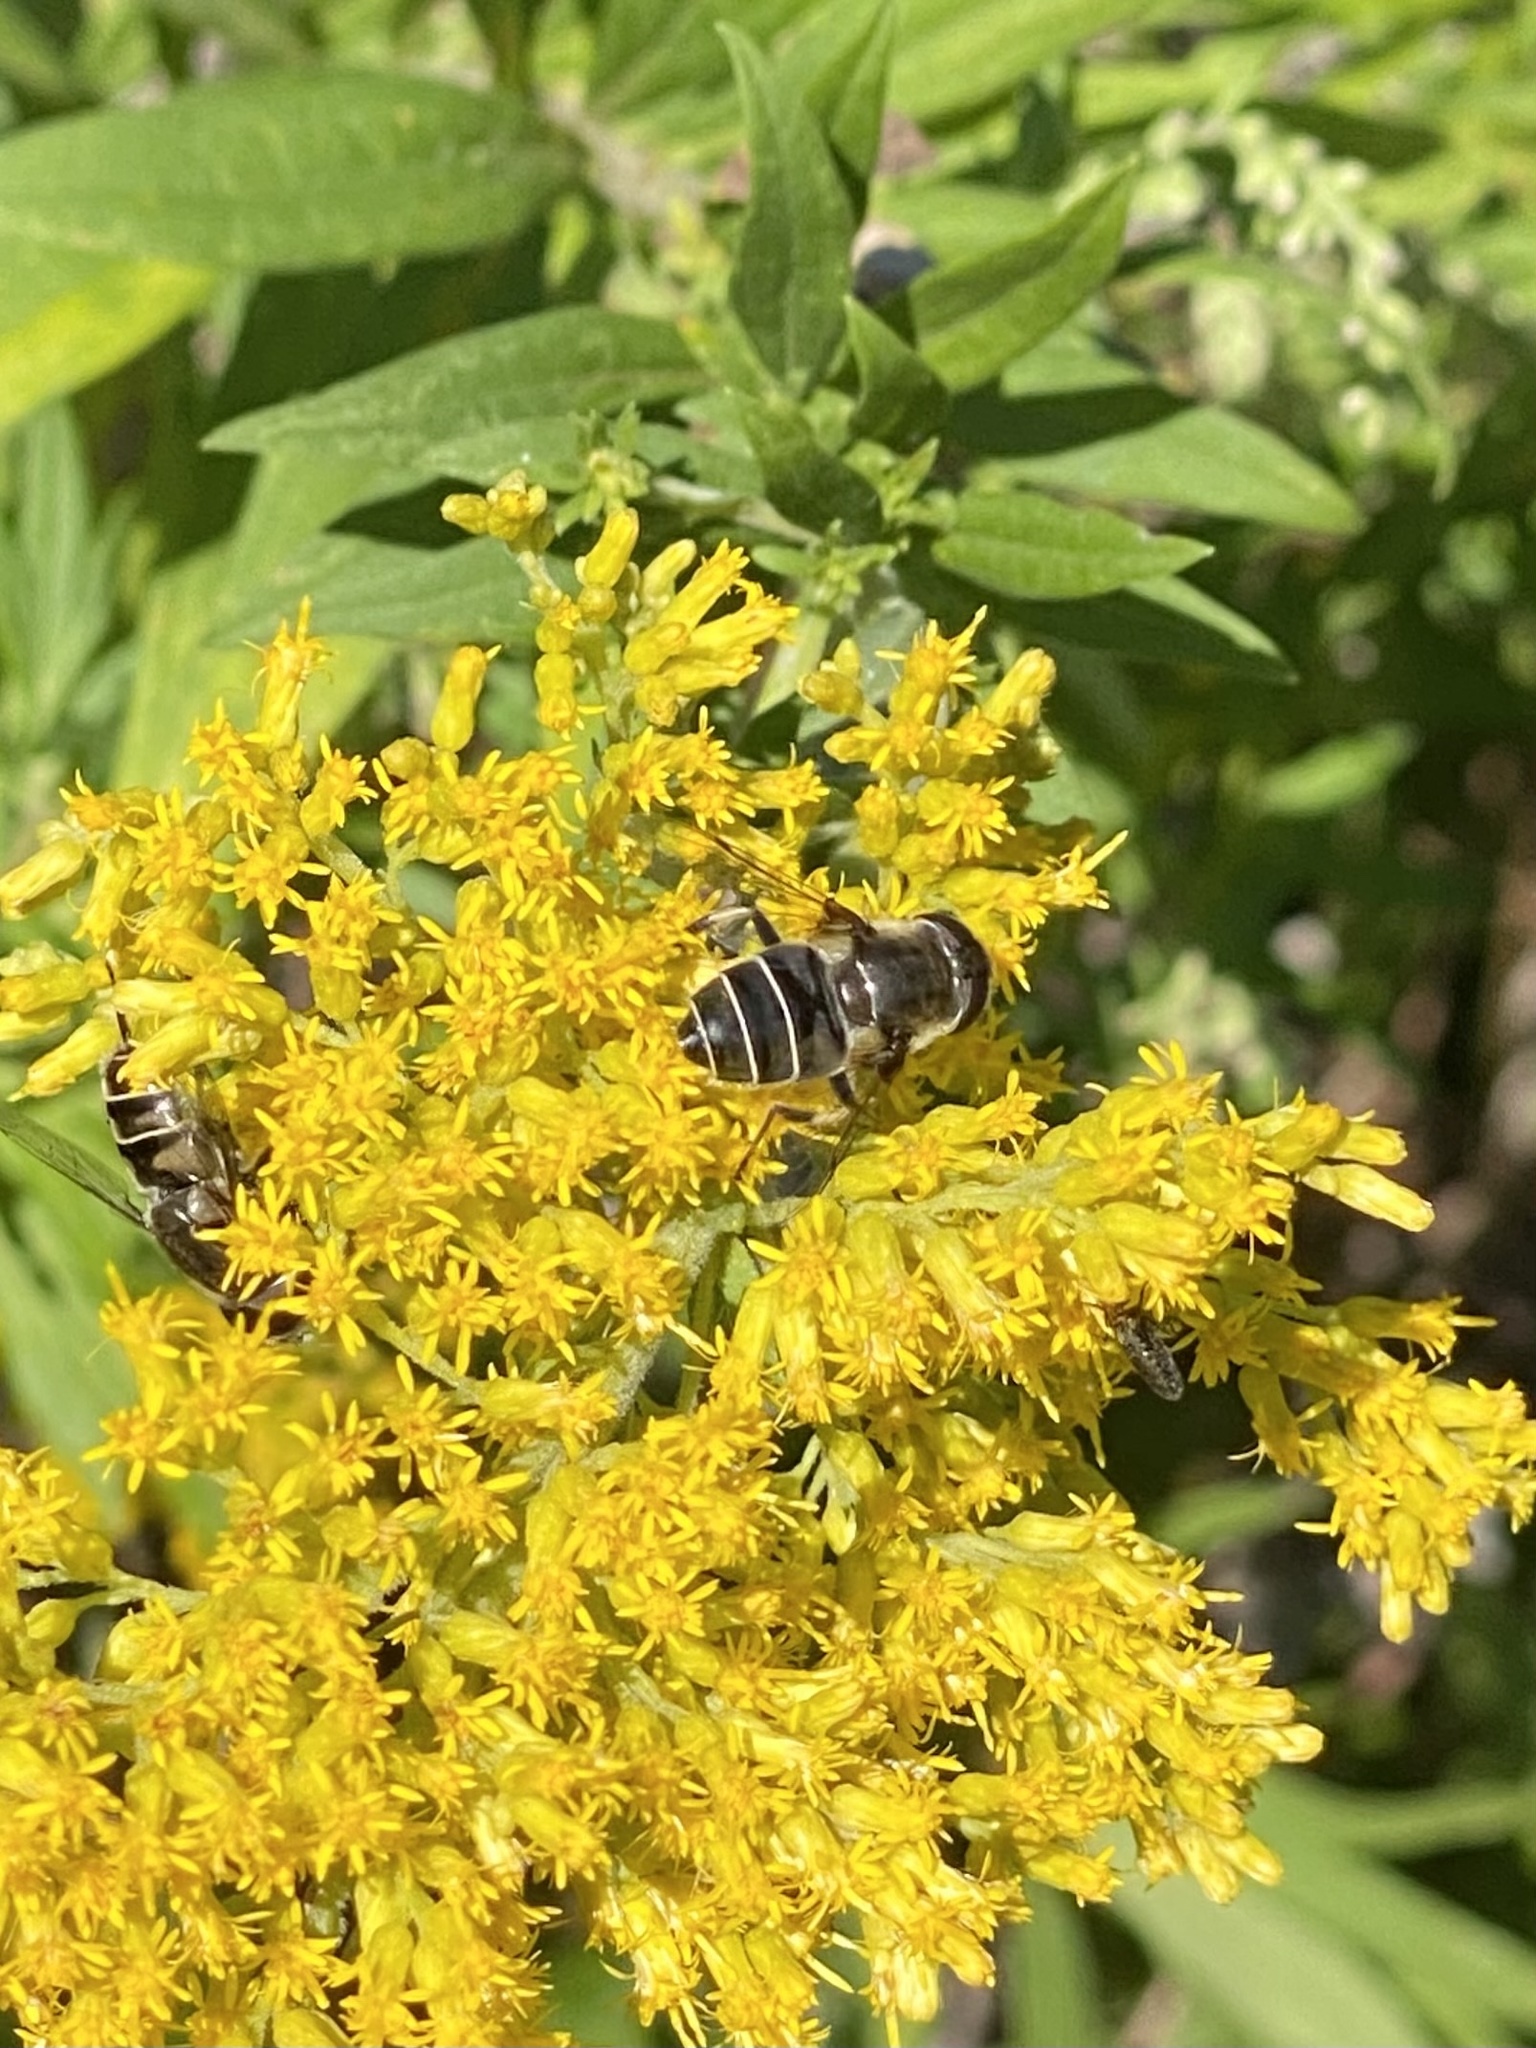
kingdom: Animalia
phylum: Arthropoda
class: Insecta
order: Diptera
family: Syrphidae
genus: Eristalis
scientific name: Eristalis dimidiata
